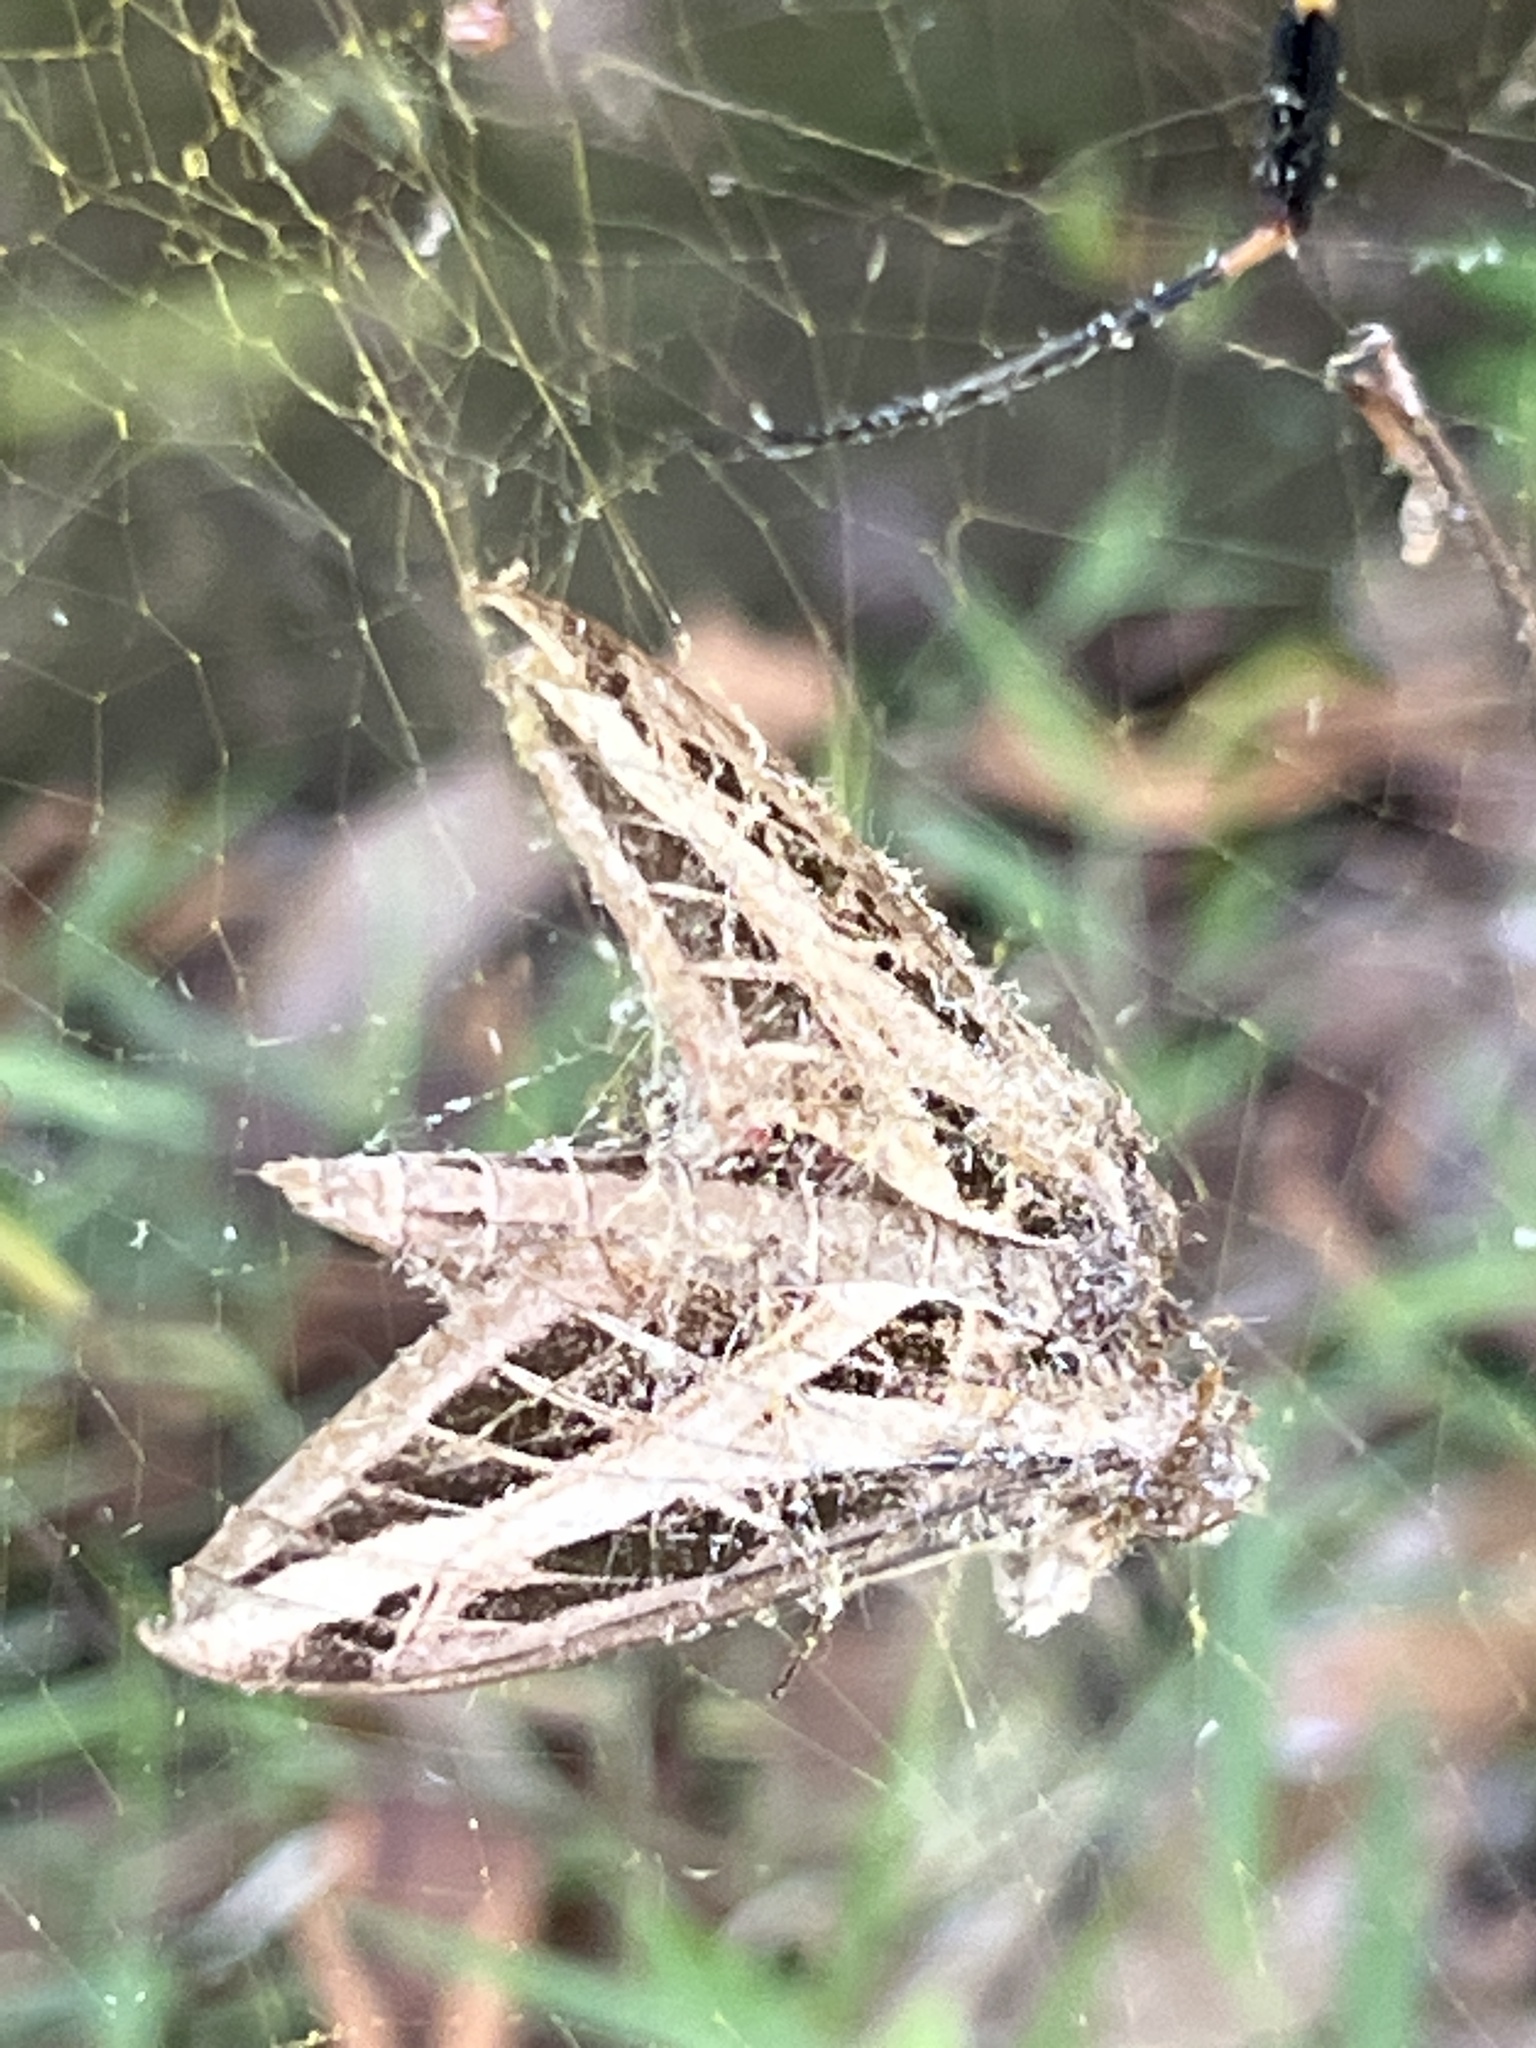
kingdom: Animalia
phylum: Arthropoda
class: Insecta
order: Lepidoptera
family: Sphingidae
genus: Eumorpha
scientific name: Eumorpha fasciatus
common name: Banded sphinx
